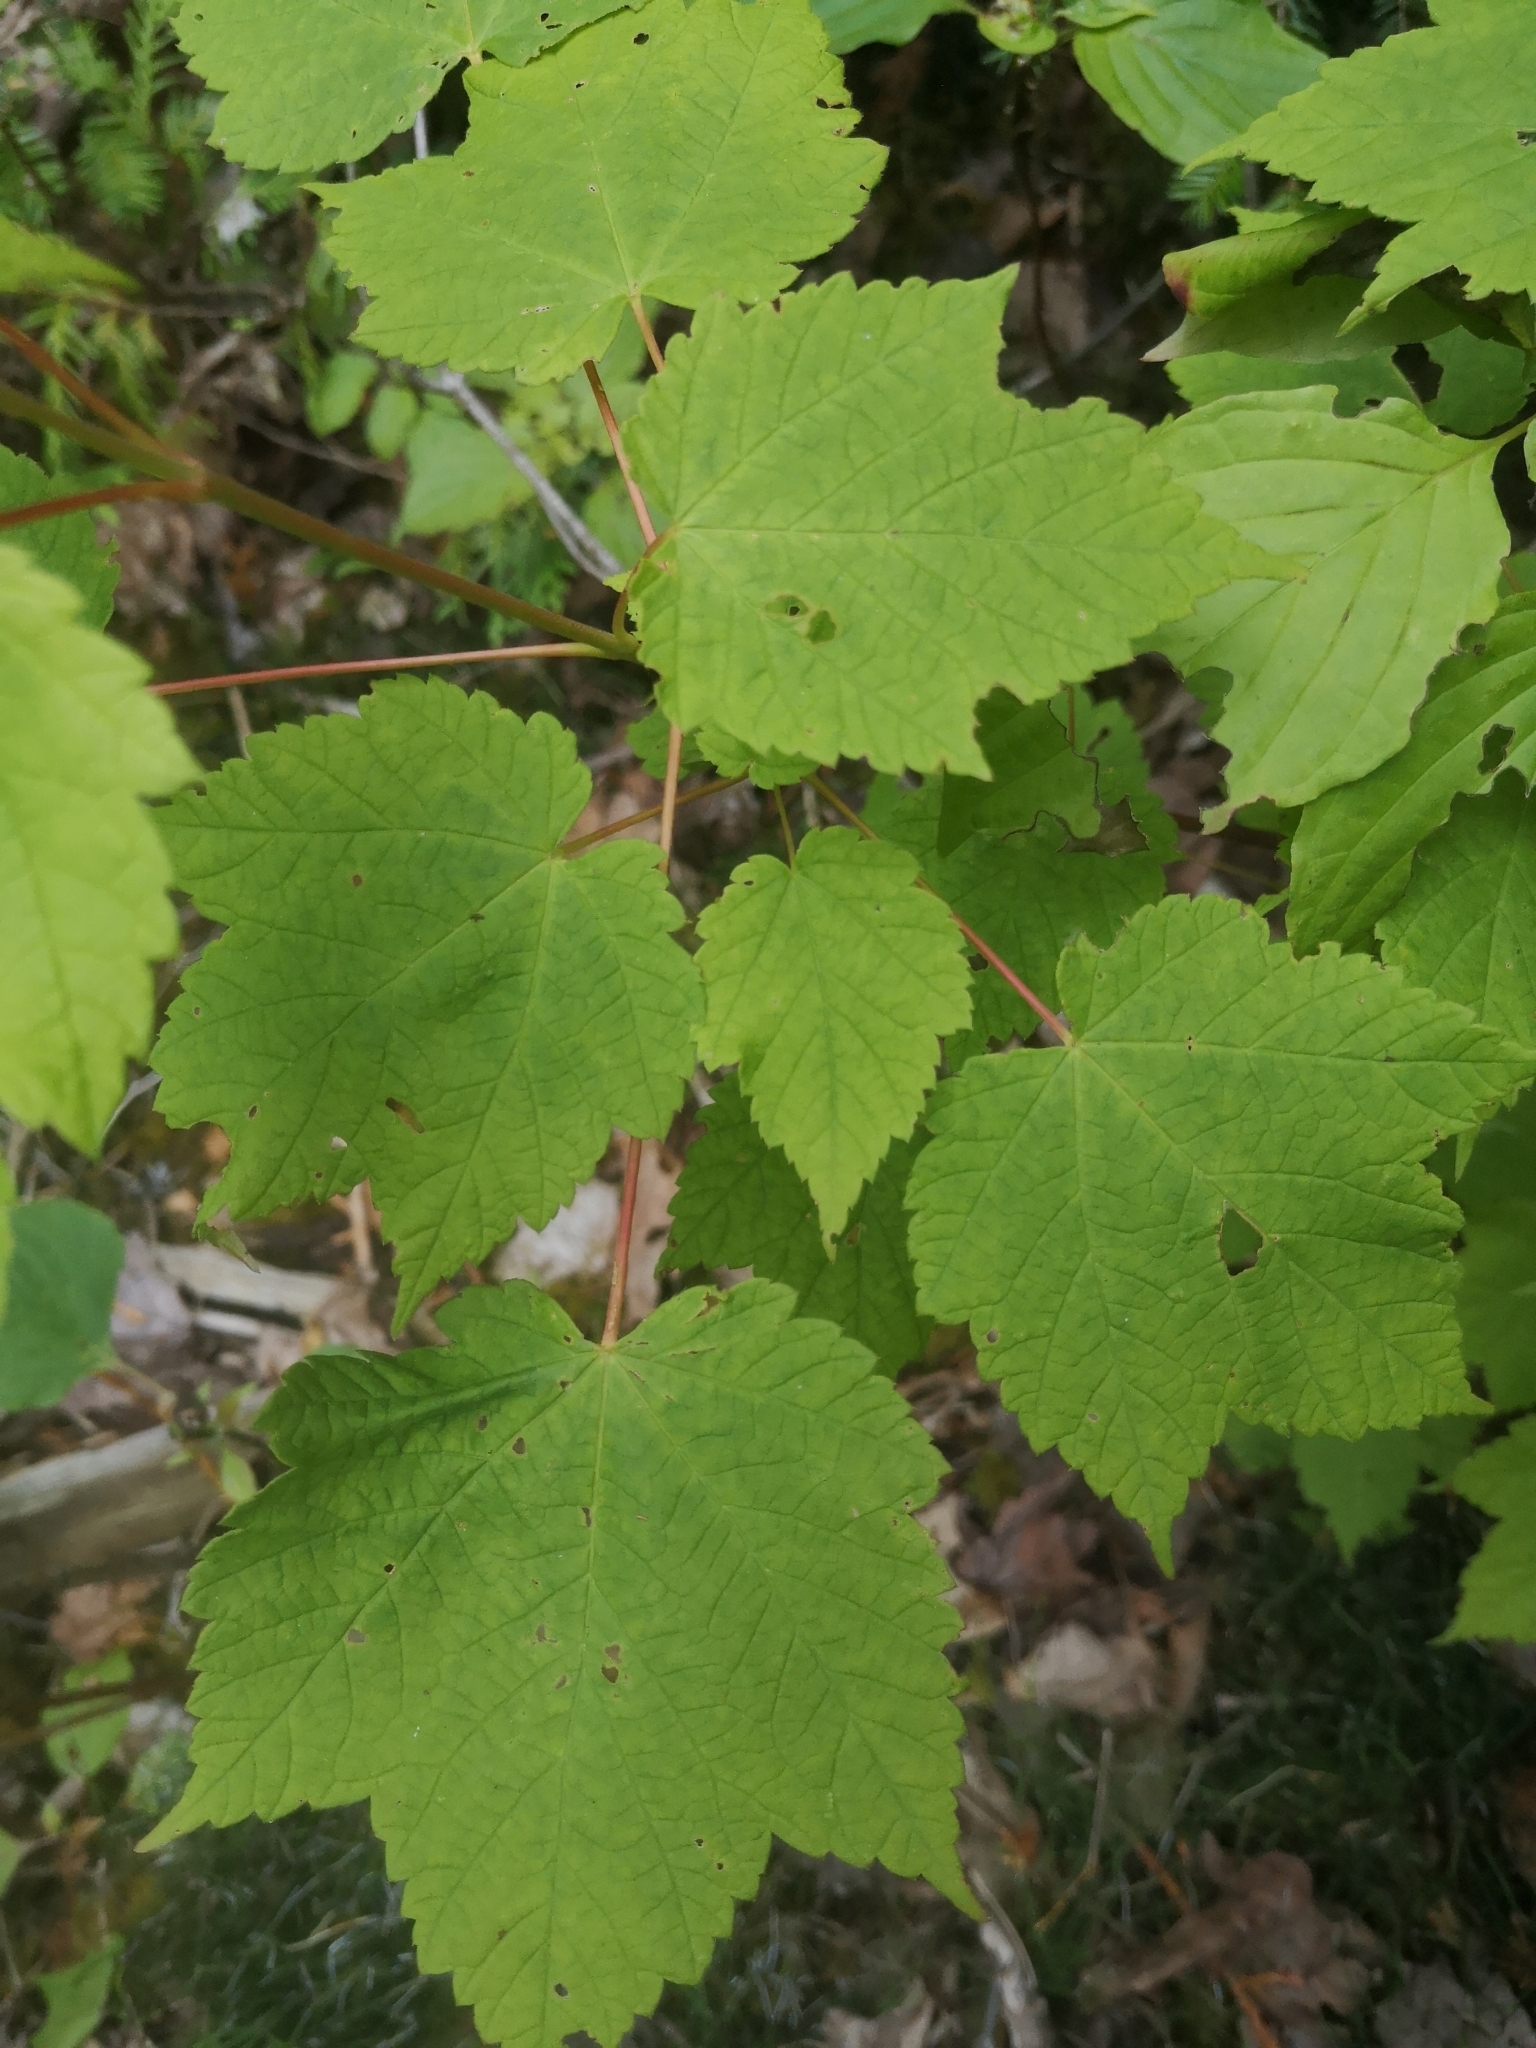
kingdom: Plantae
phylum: Tracheophyta
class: Magnoliopsida
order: Sapindales
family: Sapindaceae
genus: Acer
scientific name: Acer spicatum
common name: Mountain maple
